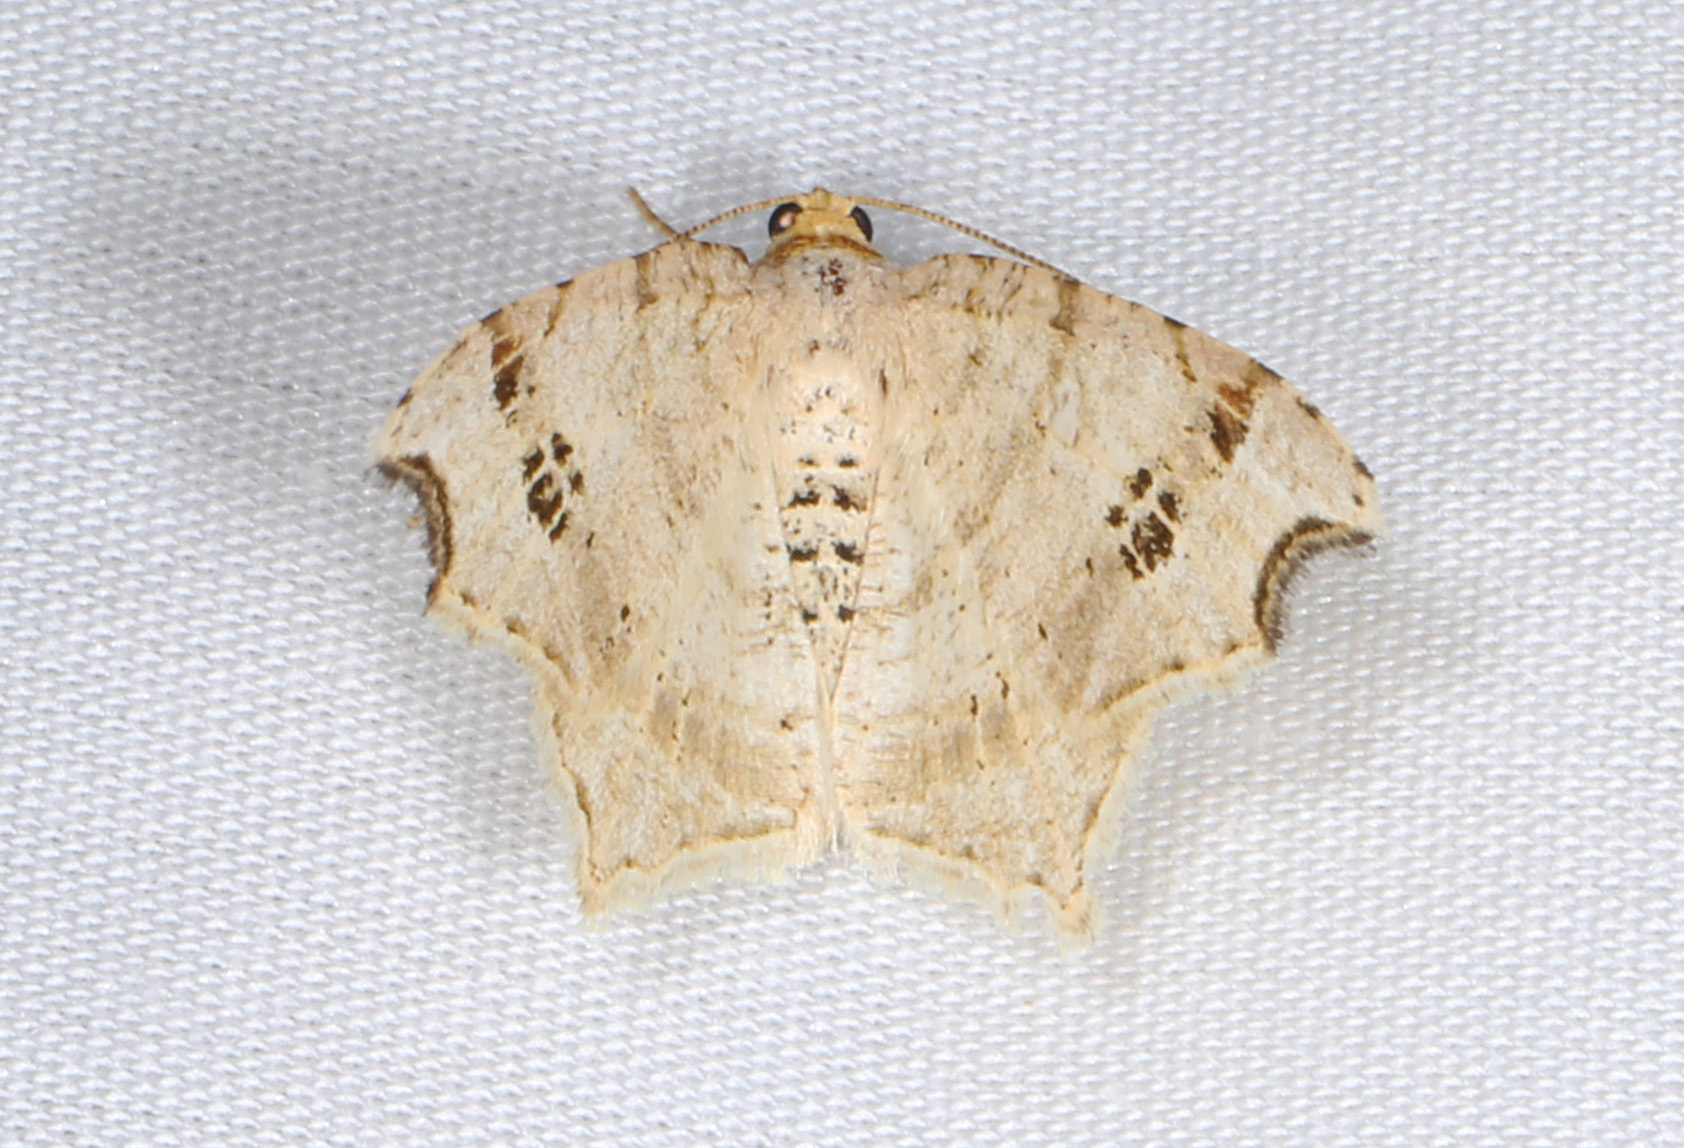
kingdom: Animalia
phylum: Arthropoda
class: Insecta
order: Lepidoptera
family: Geometridae
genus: Macaria
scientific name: Macaria aemulataria
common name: Common angle
